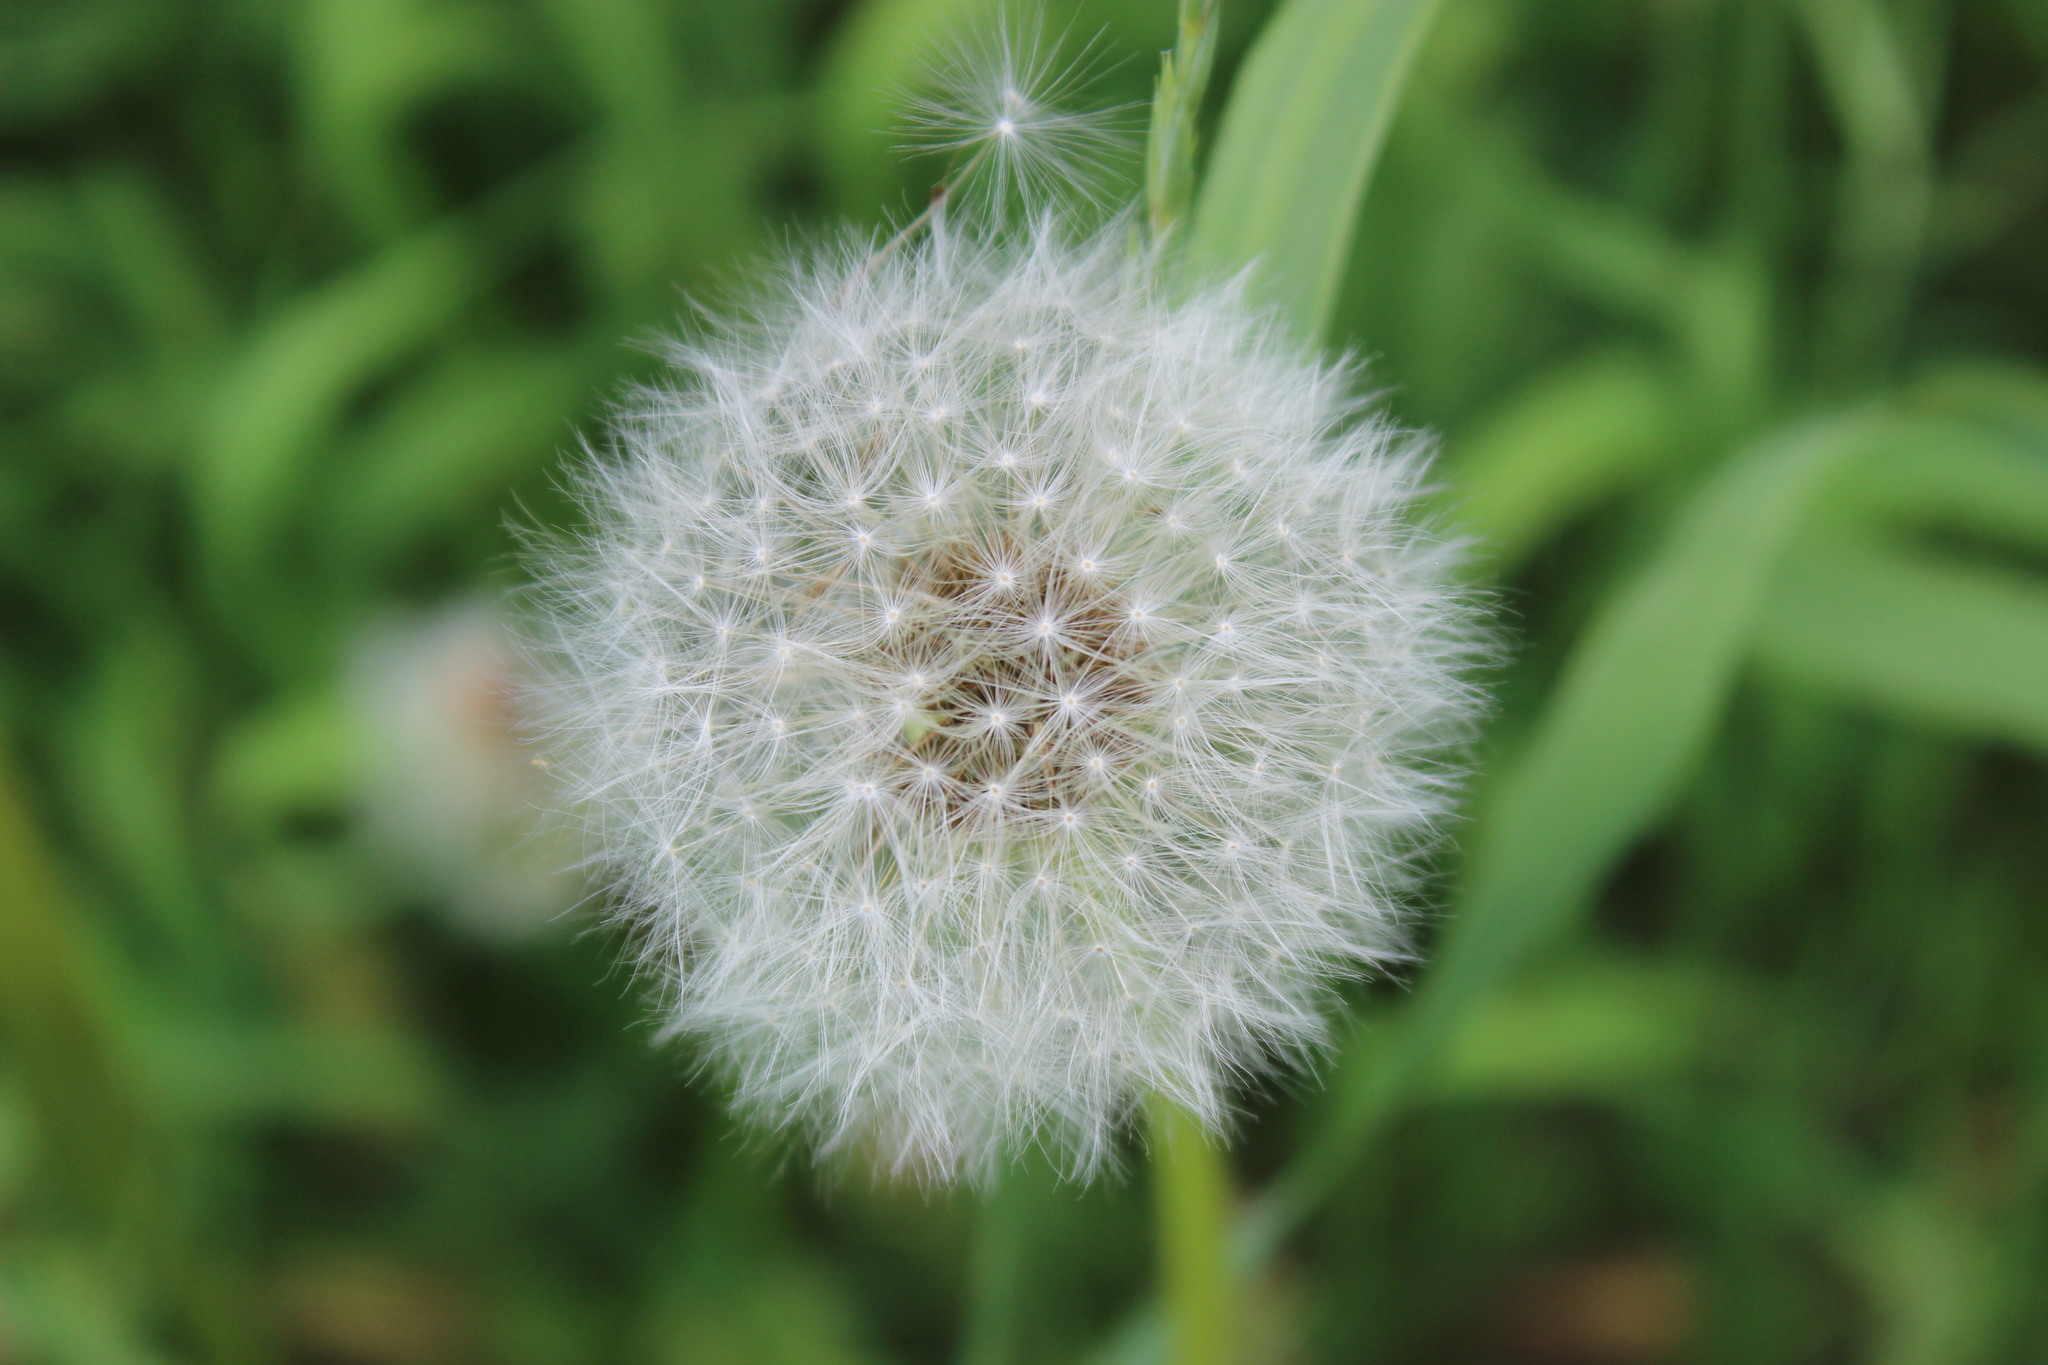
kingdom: Plantae
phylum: Tracheophyta
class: Magnoliopsida
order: Asterales
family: Asteraceae
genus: Taraxacum
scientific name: Taraxacum officinale
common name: Common dandelion
